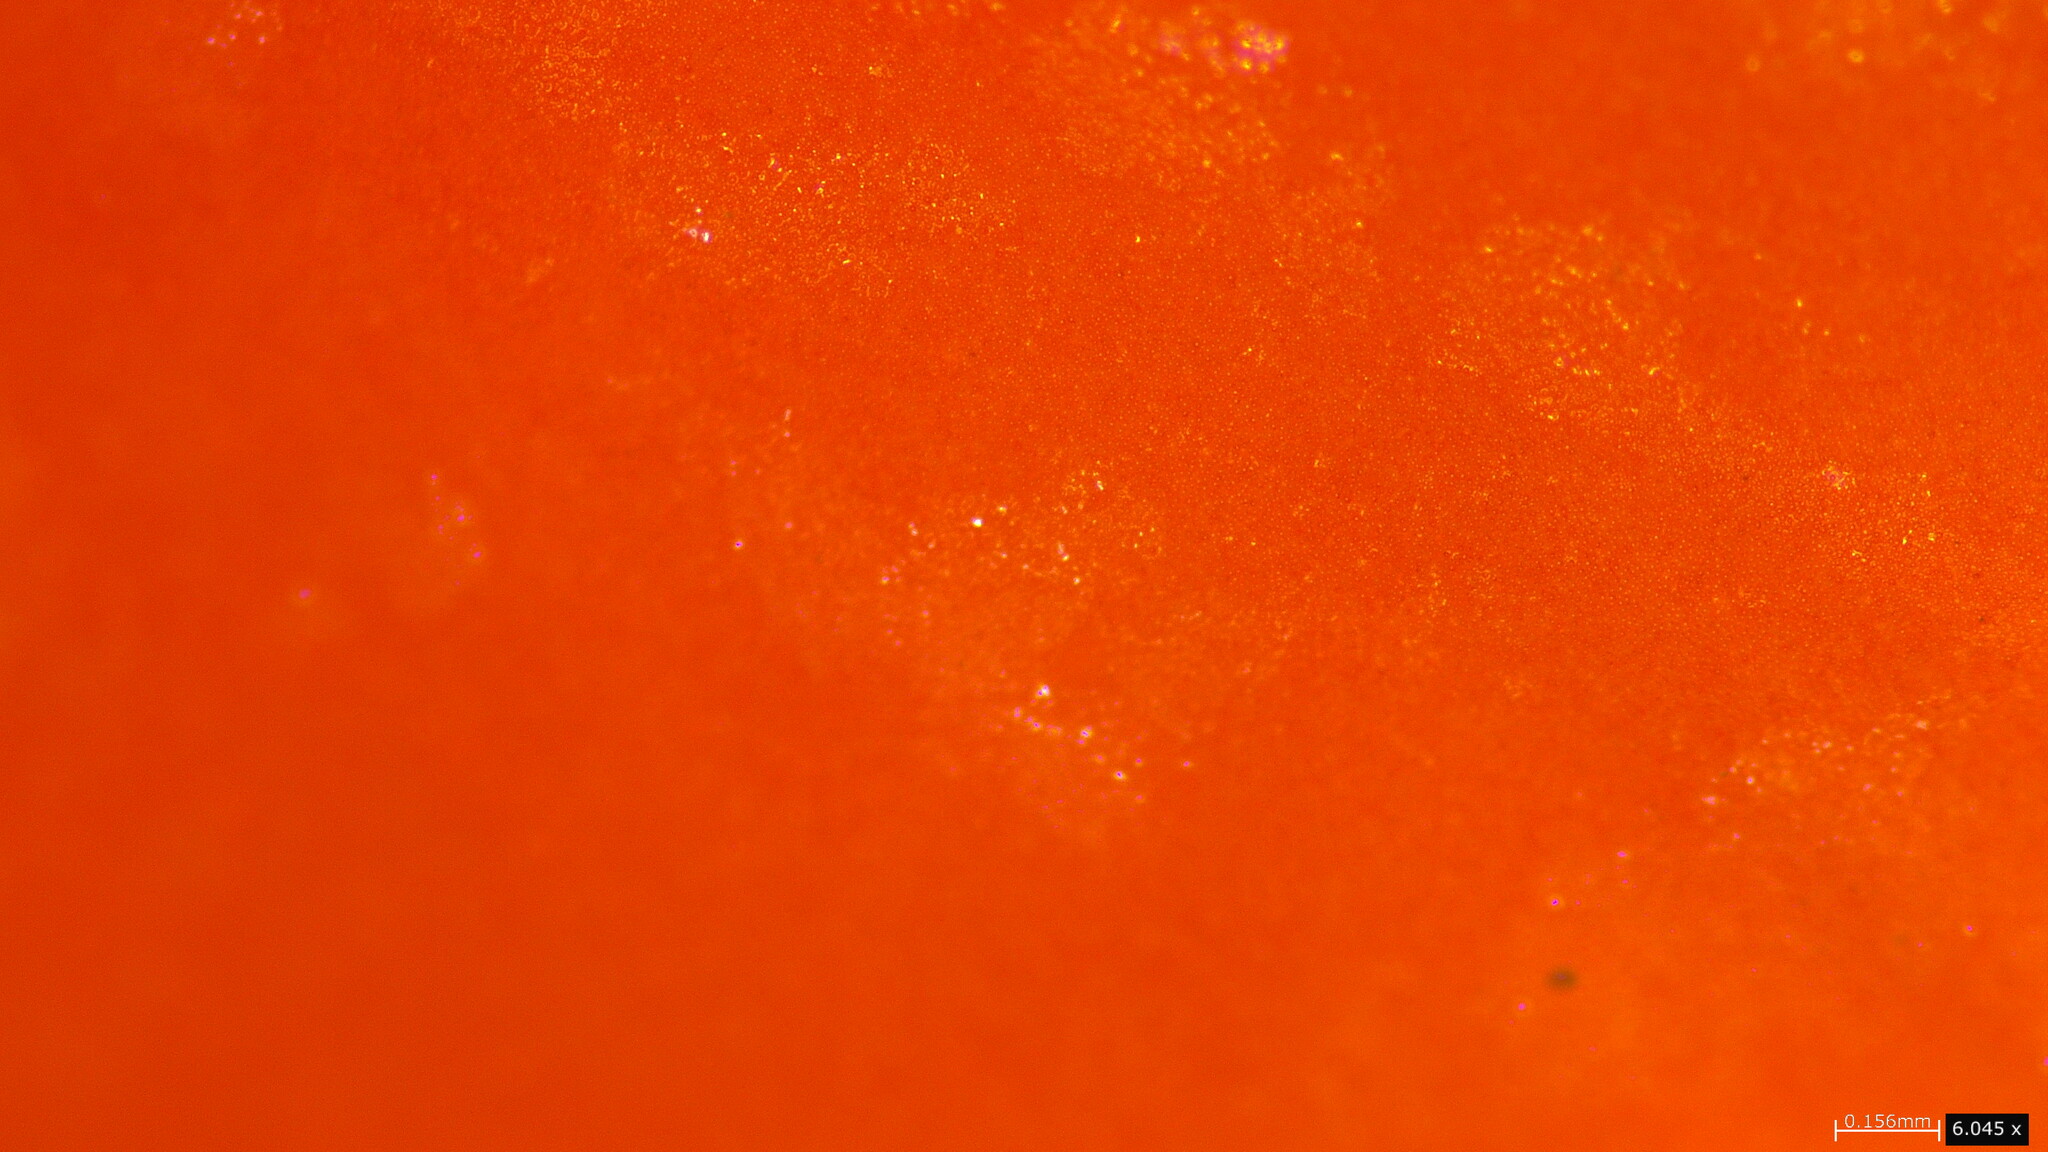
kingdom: Fungi
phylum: Basidiomycota
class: Agaricomycetes
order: Agaricales
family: Pluteaceae
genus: Pluteus
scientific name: Pluteus aurantiorugosus
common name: Flame shield
